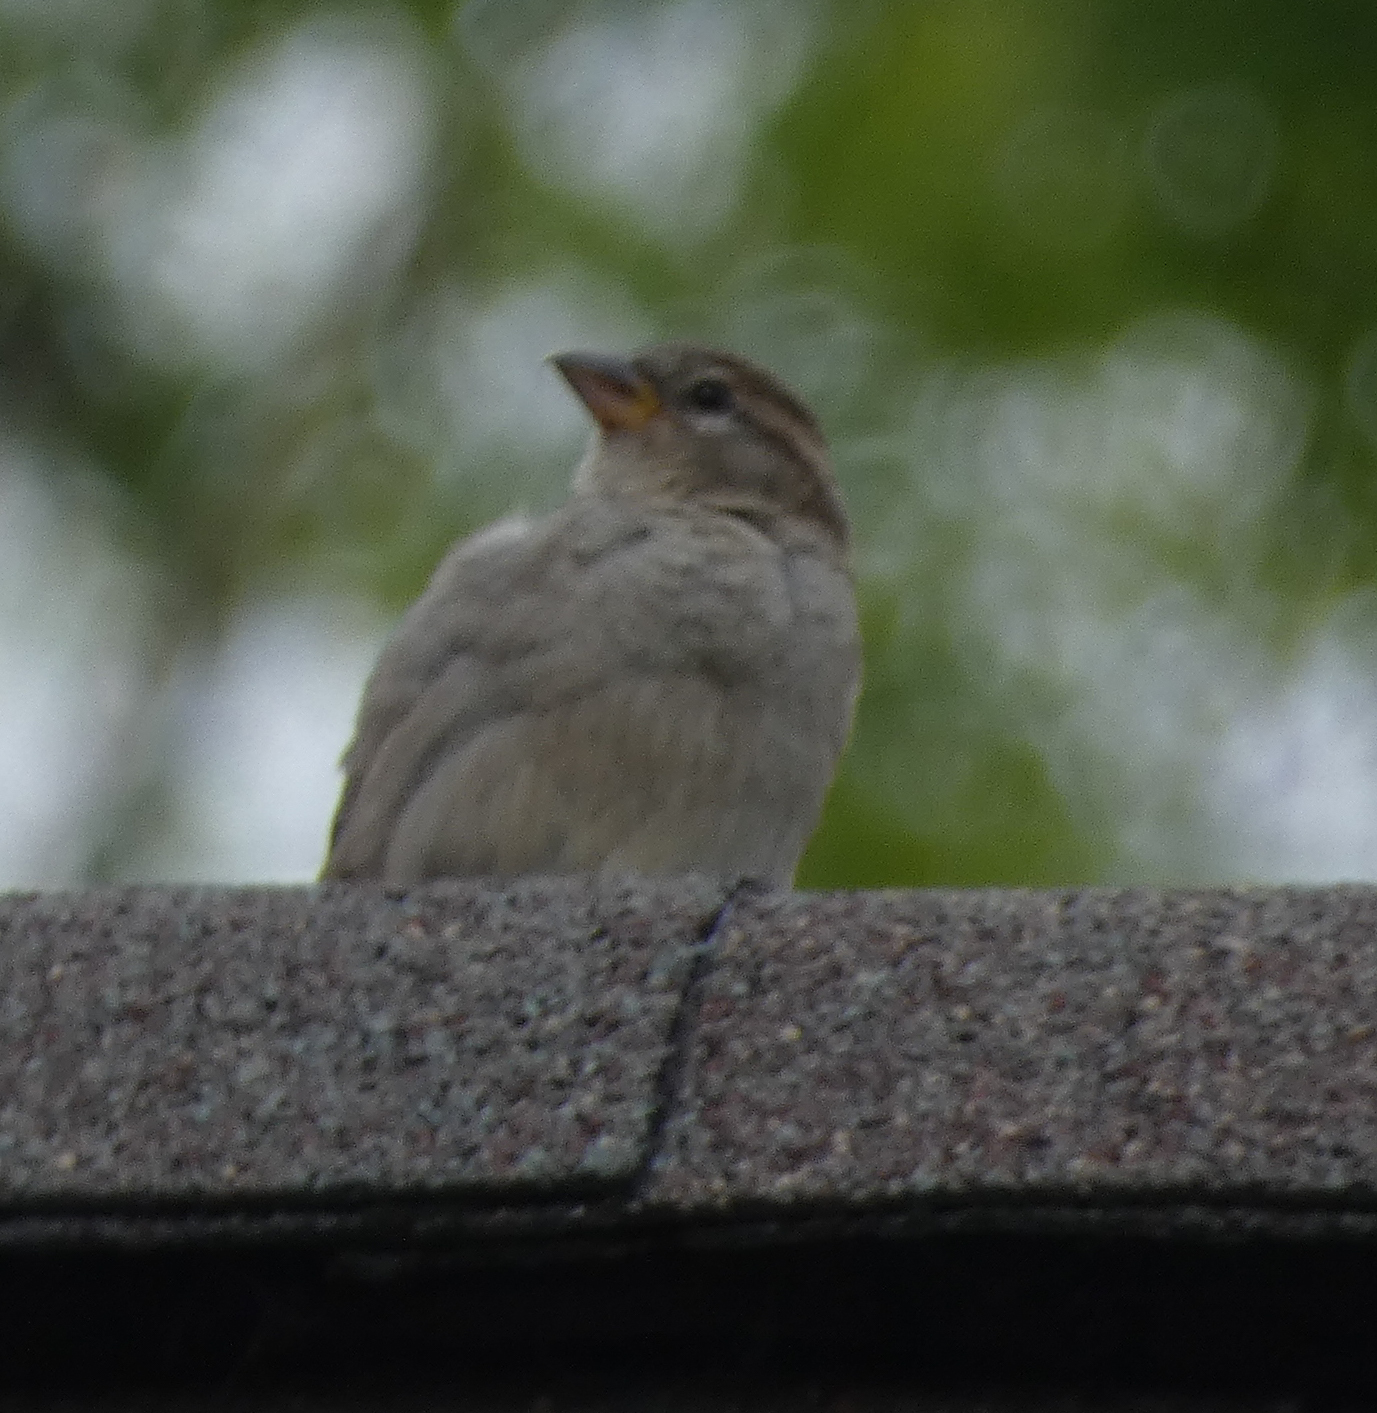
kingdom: Animalia
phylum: Chordata
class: Aves
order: Passeriformes
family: Passeridae
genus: Passer
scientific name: Passer domesticus
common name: House sparrow
